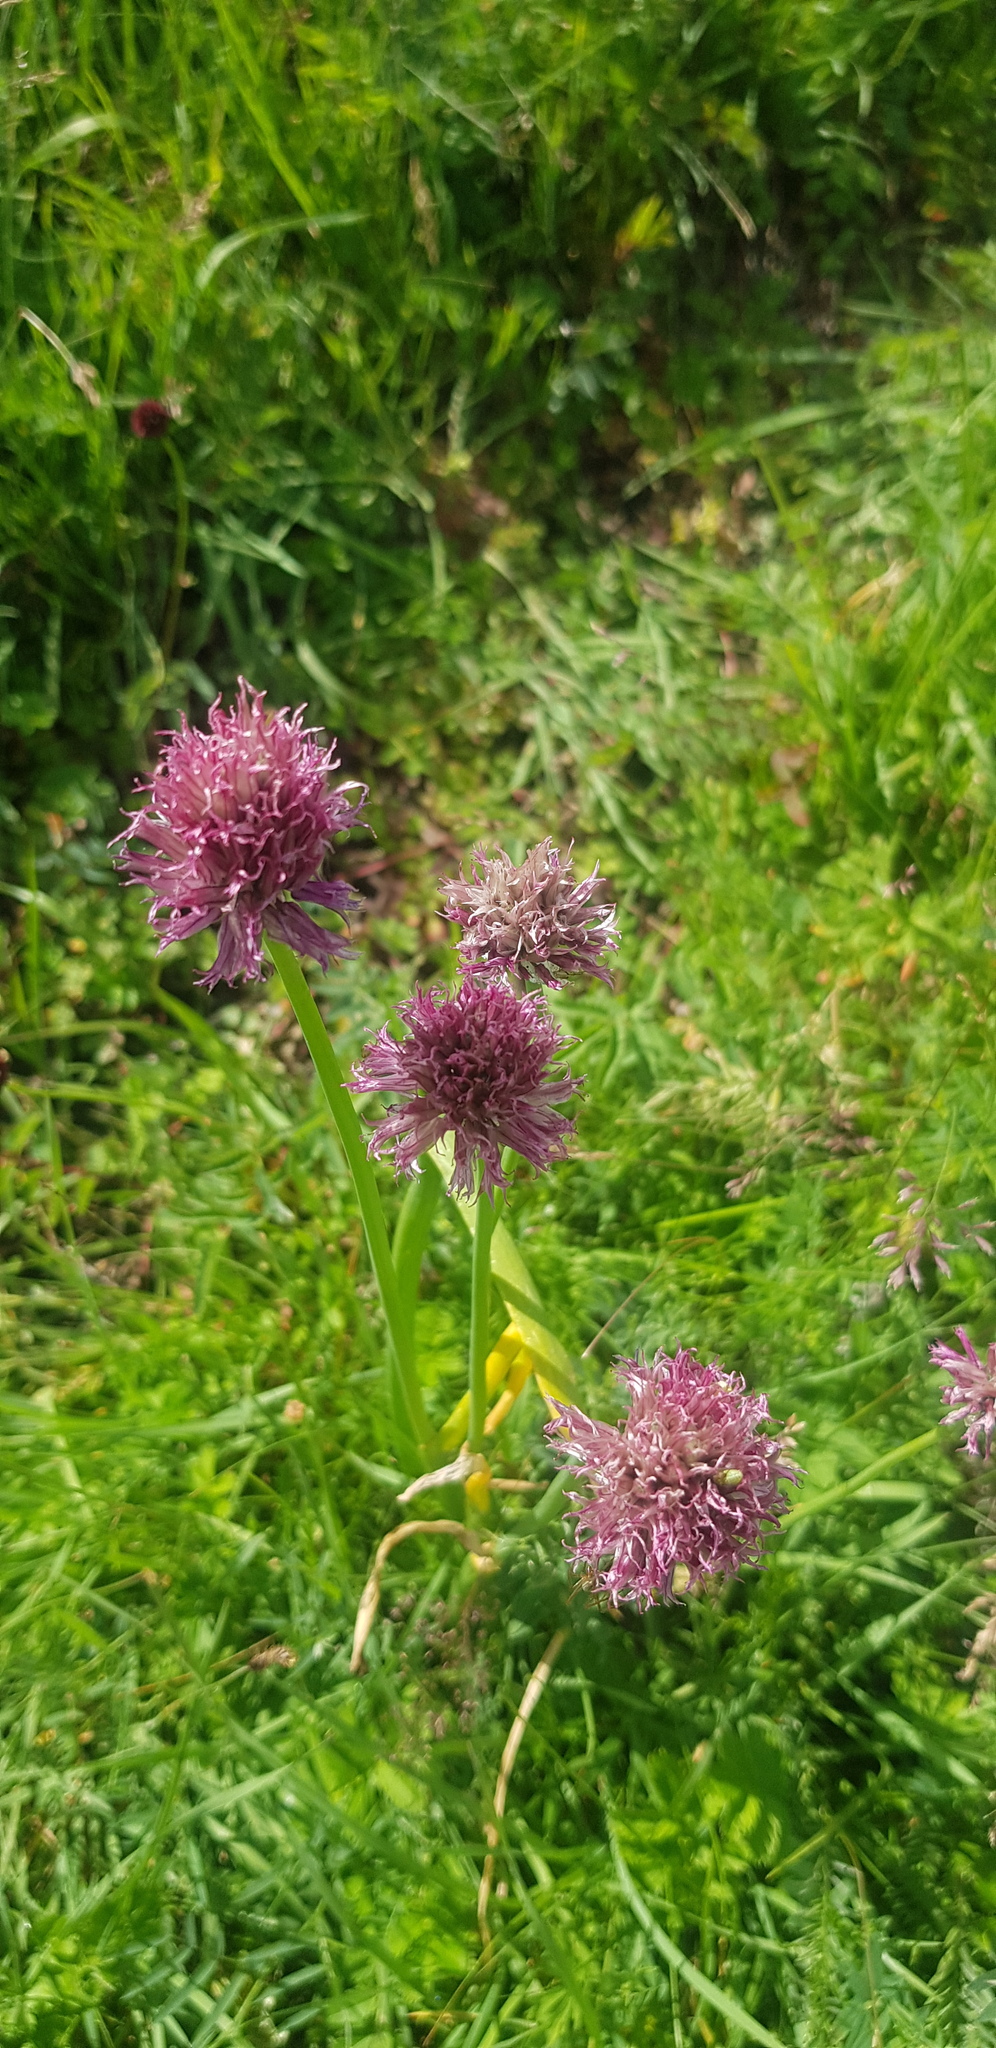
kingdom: Plantae
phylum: Tracheophyta
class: Liliopsida
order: Asparagales
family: Amaryllidaceae
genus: Allium
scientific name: Allium schoenoprasum
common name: Chives
